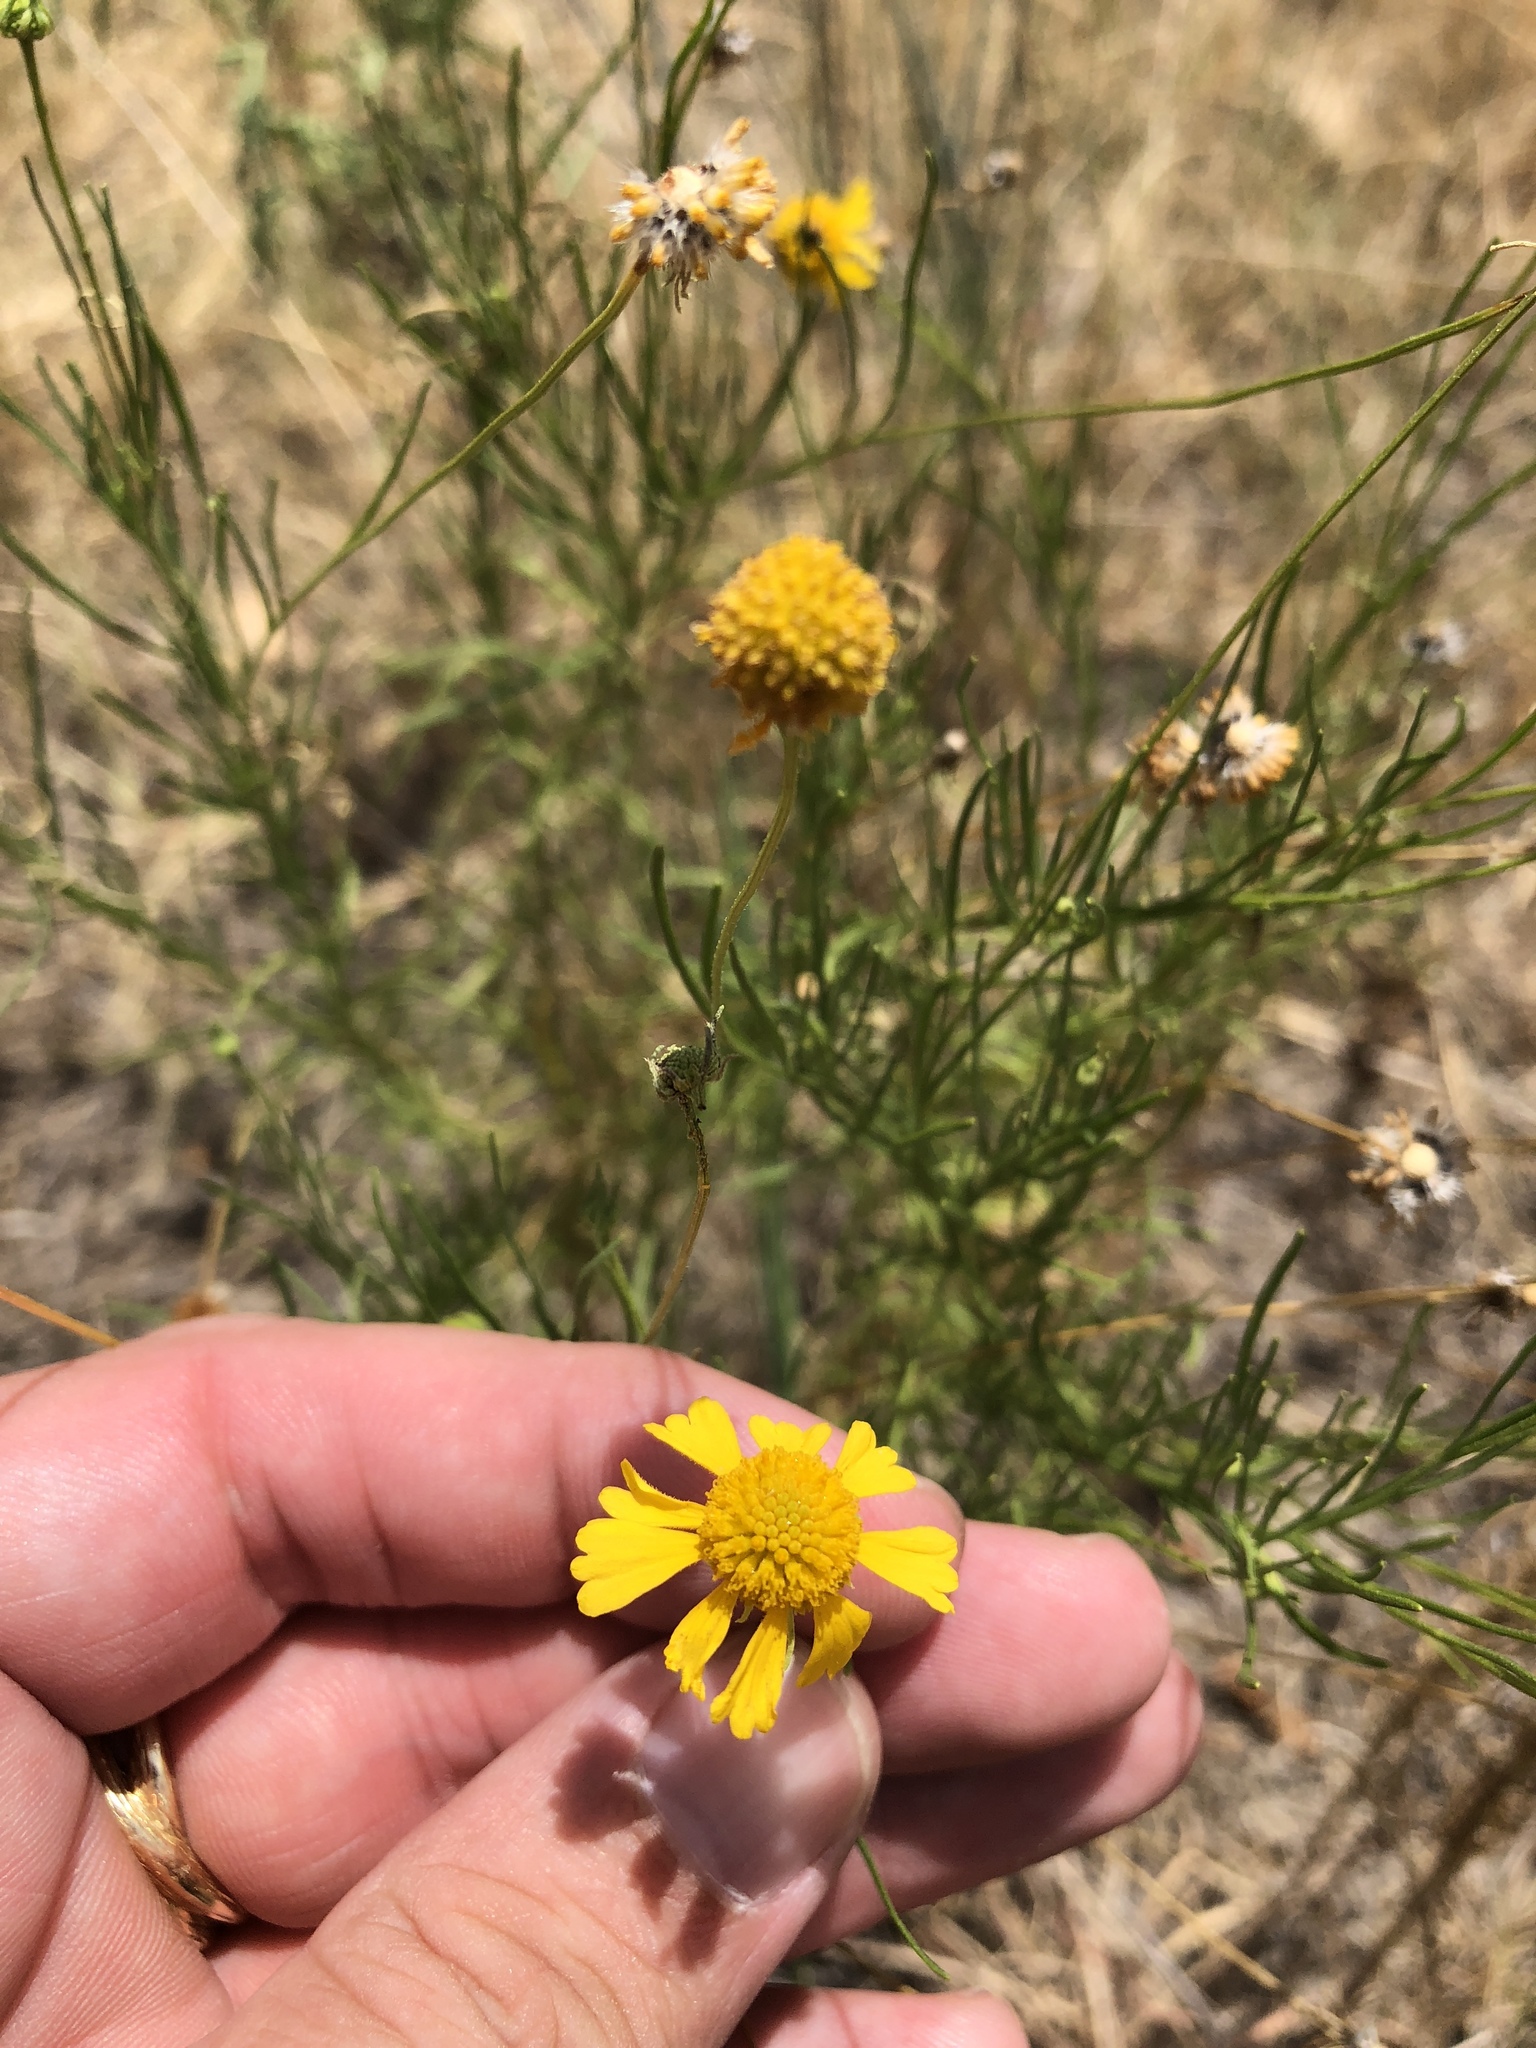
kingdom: Plantae
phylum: Tracheophyta
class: Magnoliopsida
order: Asterales
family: Asteraceae
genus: Helenium
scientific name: Helenium amarum
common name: Bitter sneezeweed
